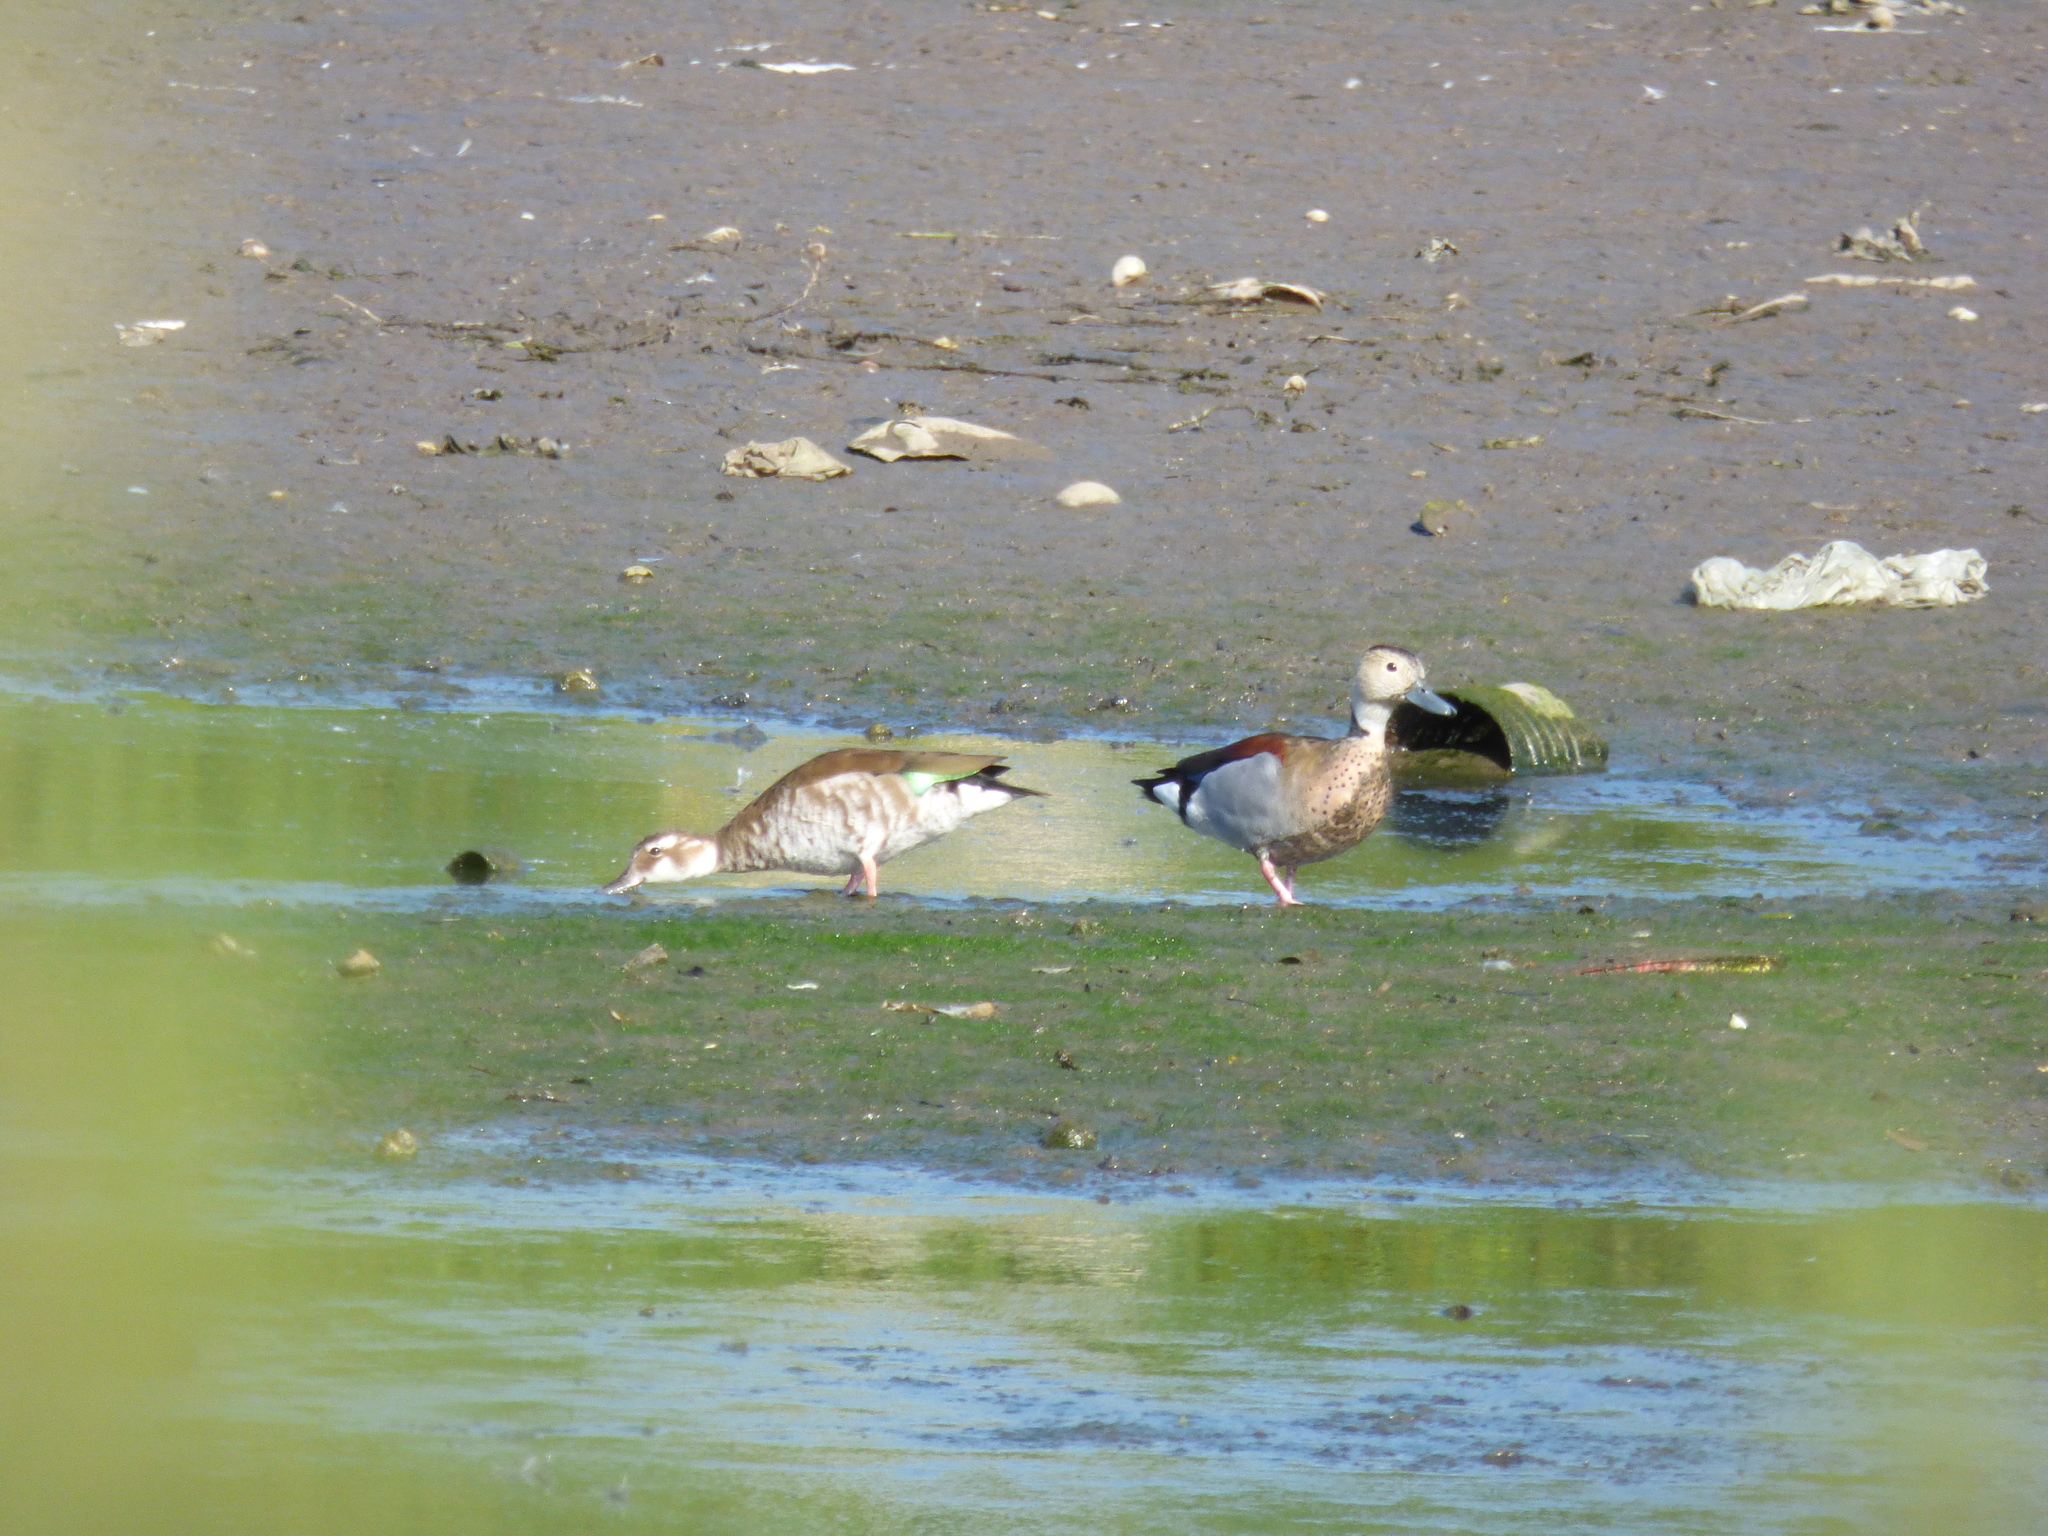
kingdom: Animalia
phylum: Chordata
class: Aves
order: Anseriformes
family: Anatidae
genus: Callonetta
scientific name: Callonetta leucophrys
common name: Ringed teal
